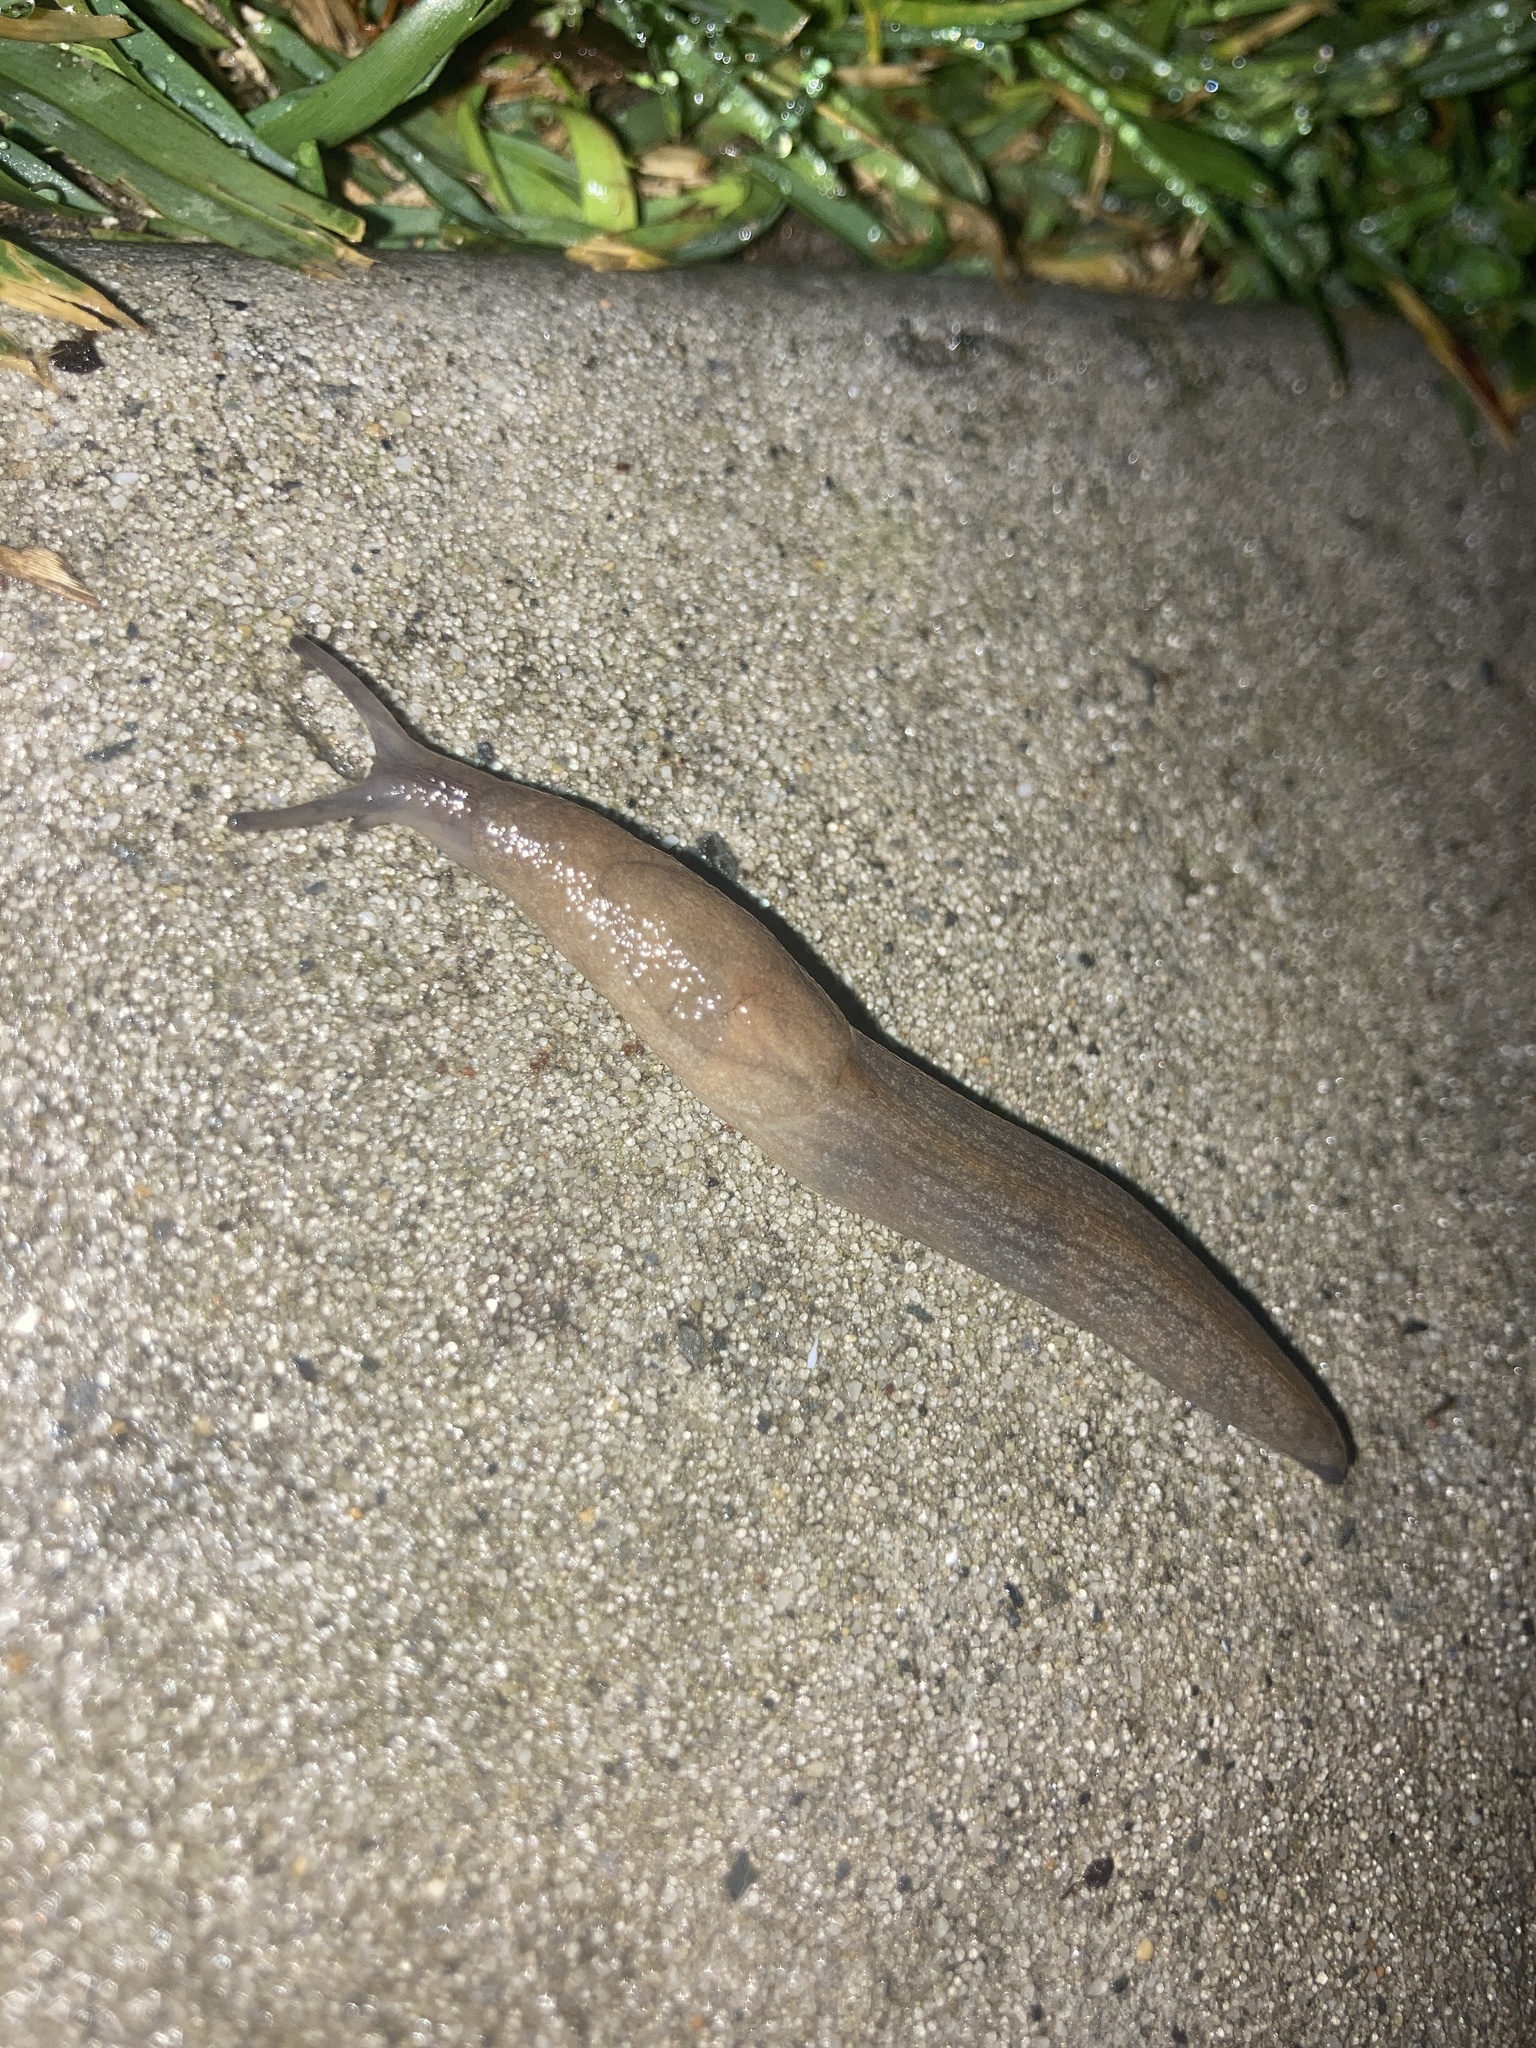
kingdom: Animalia
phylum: Mollusca
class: Gastropoda
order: Stylommatophora
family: Milacidae
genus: Milax
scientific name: Milax gagates
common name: Greenhouse slug
